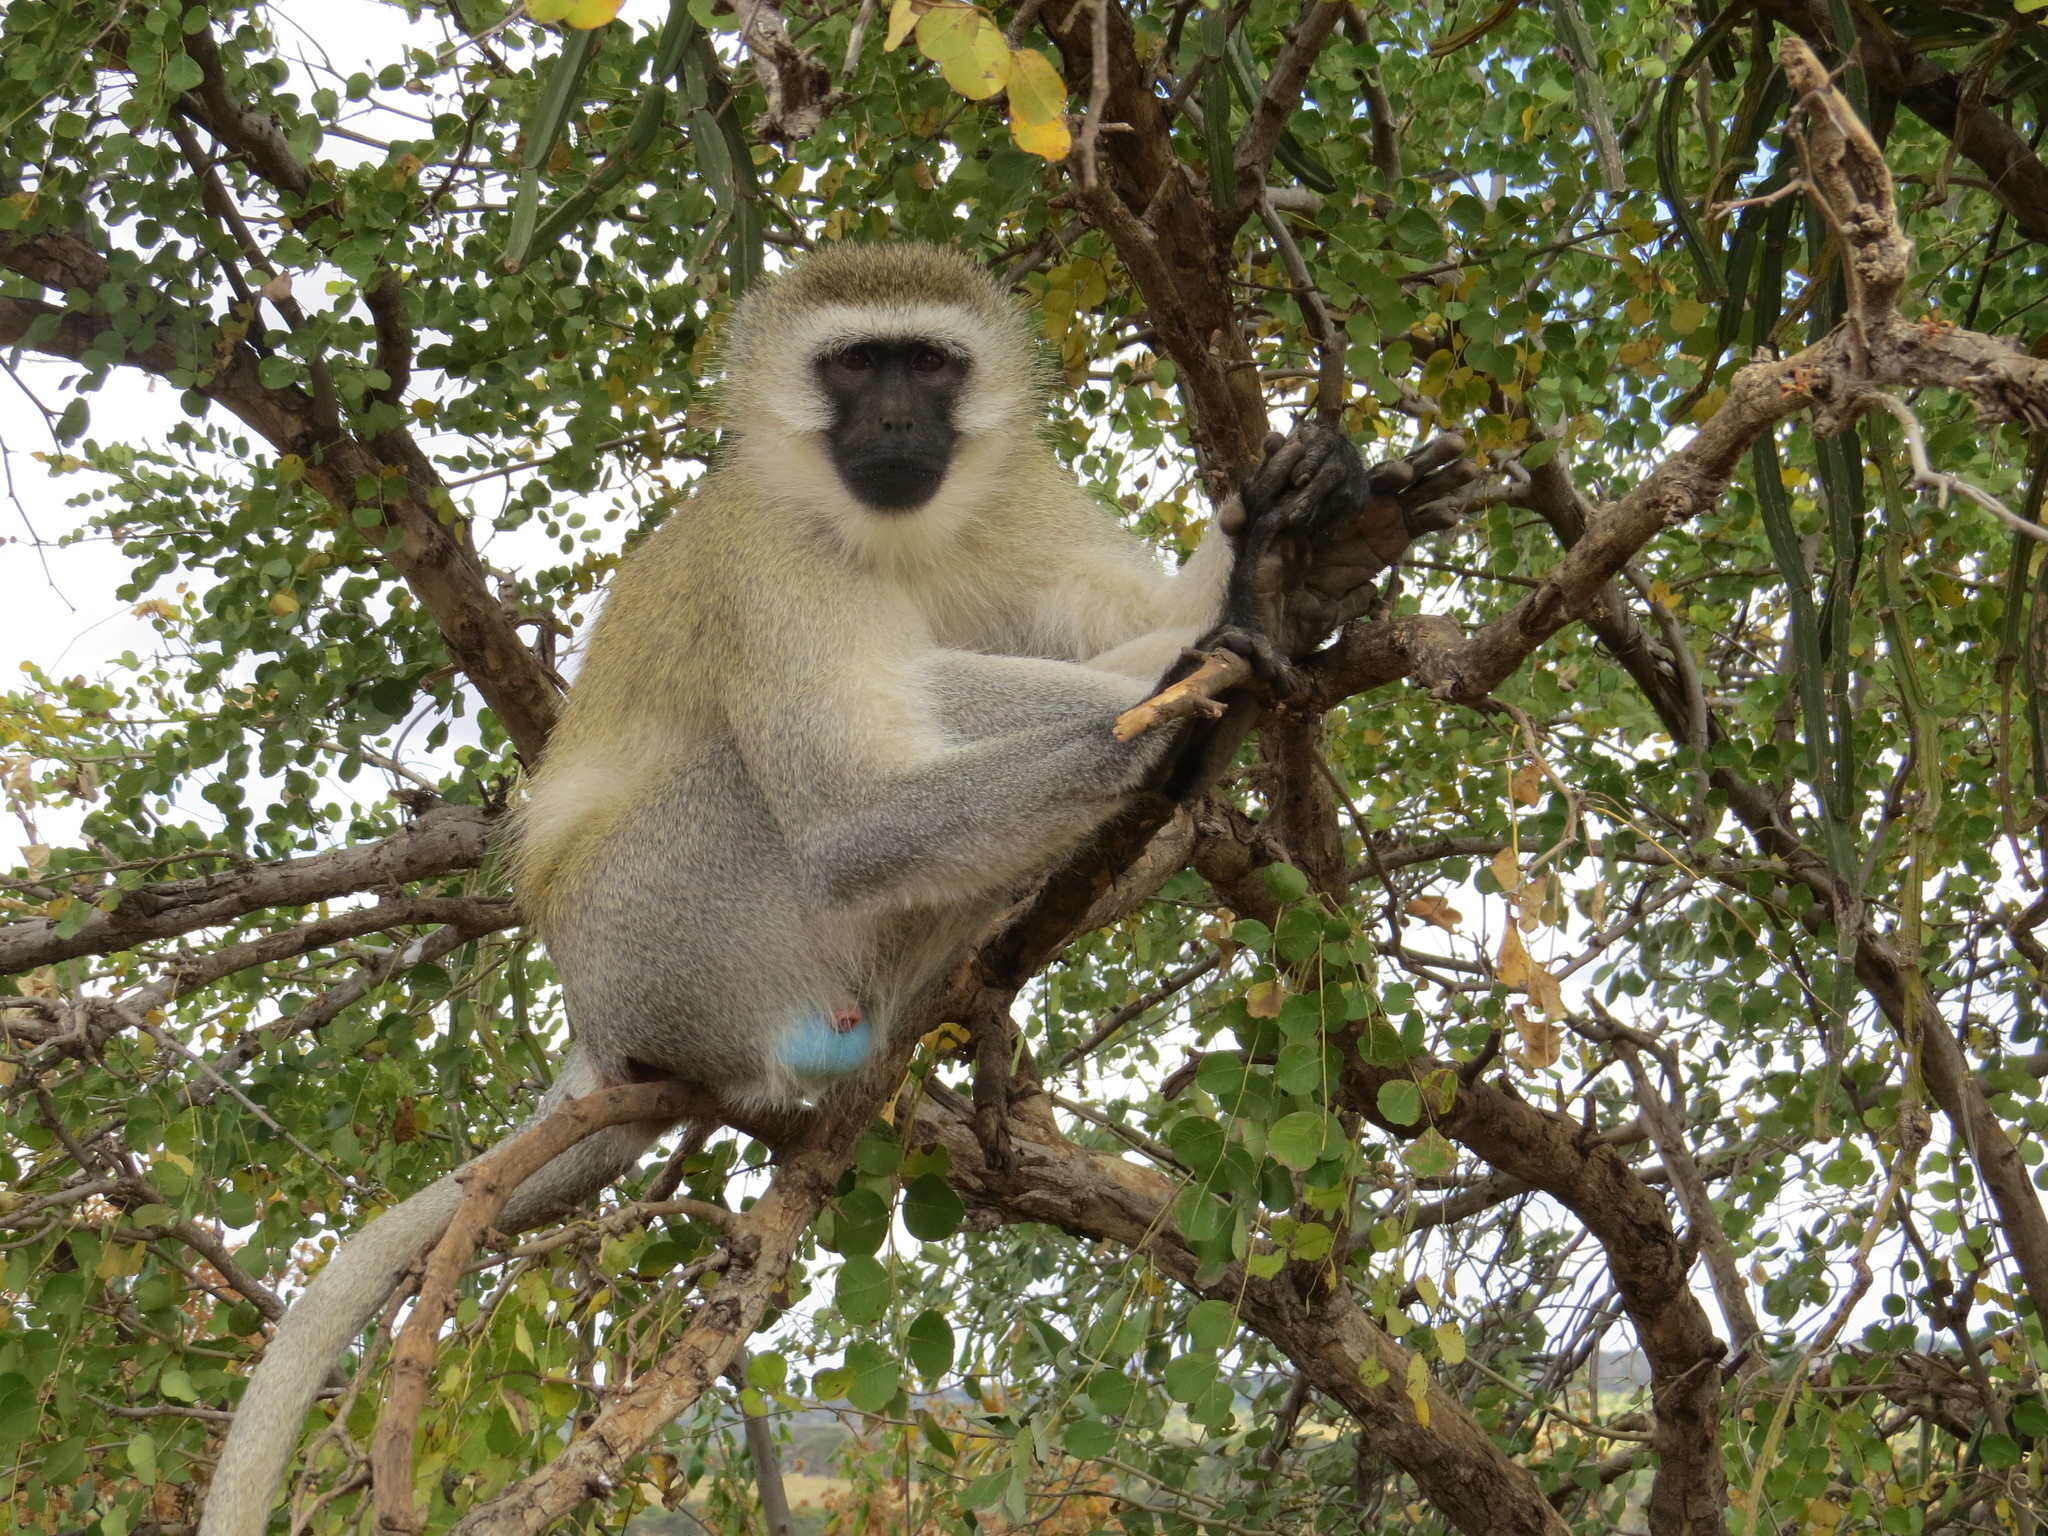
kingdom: Animalia
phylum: Chordata
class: Mammalia
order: Primates
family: Cercopithecidae
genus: Chlorocebus
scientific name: Chlorocebus pygerythrus
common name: Vervet monkey
